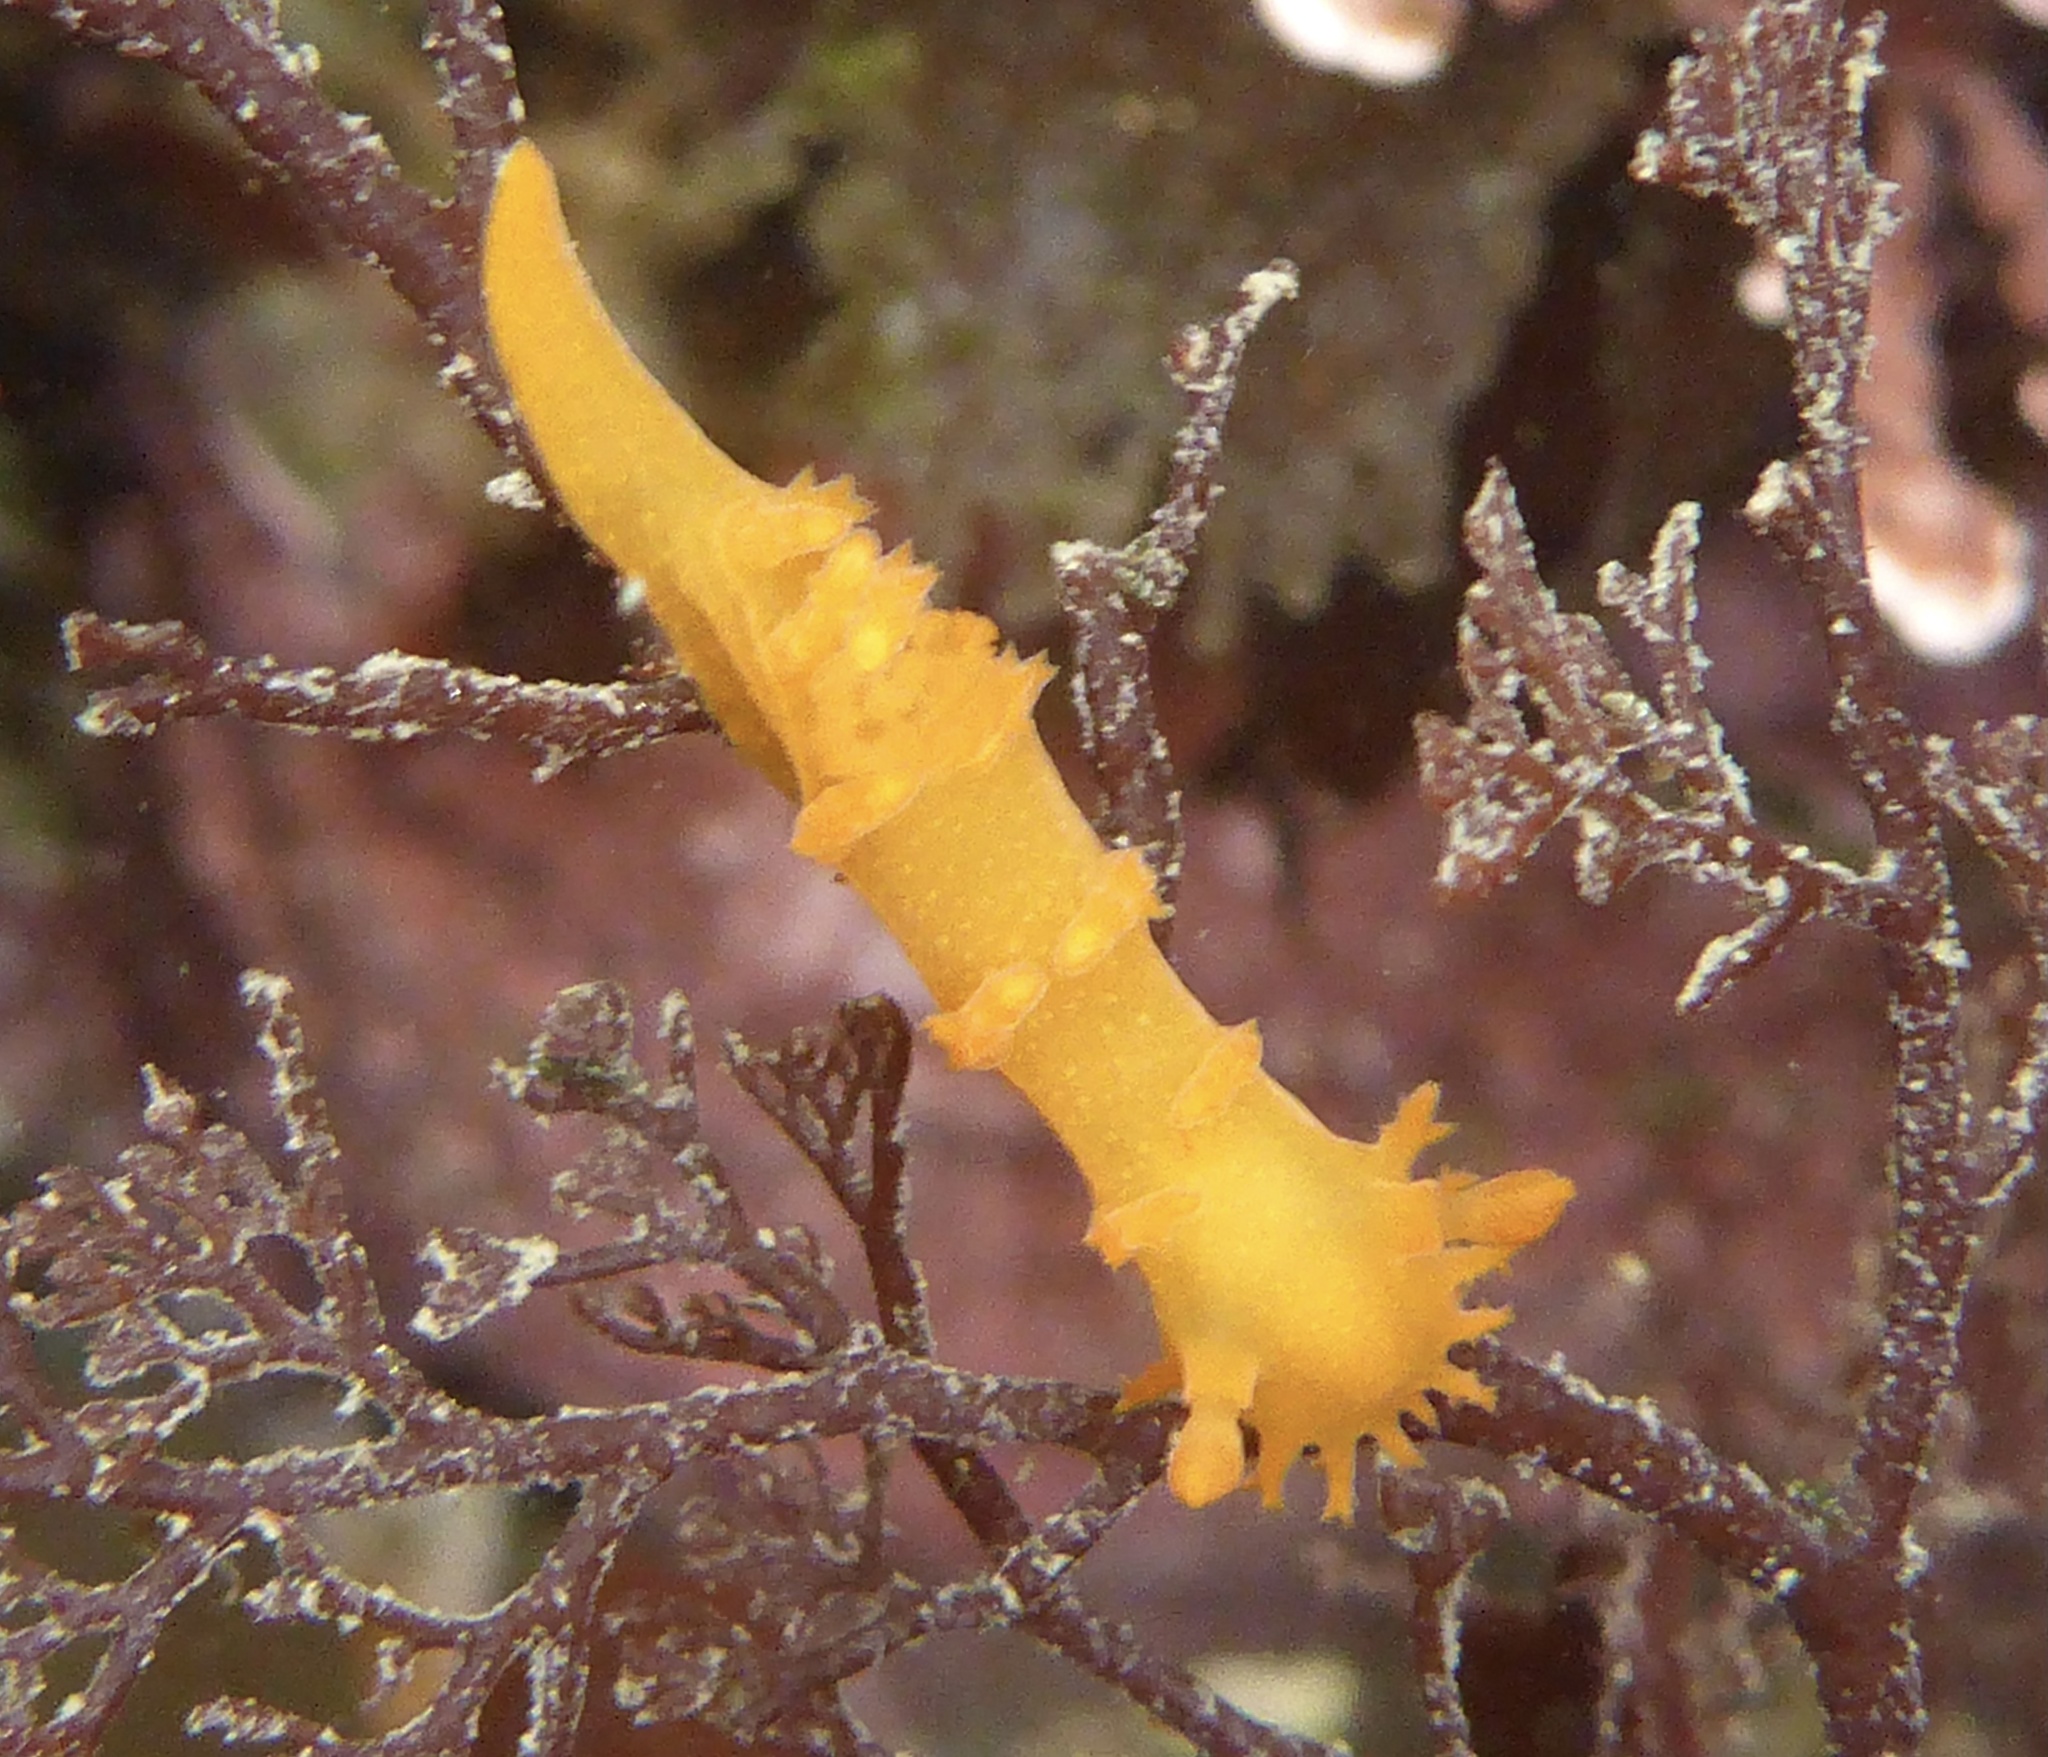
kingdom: Animalia
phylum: Mollusca
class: Gastropoda
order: Nudibranchia
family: Polyceridae
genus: Triopha
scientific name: Triopha maculata
